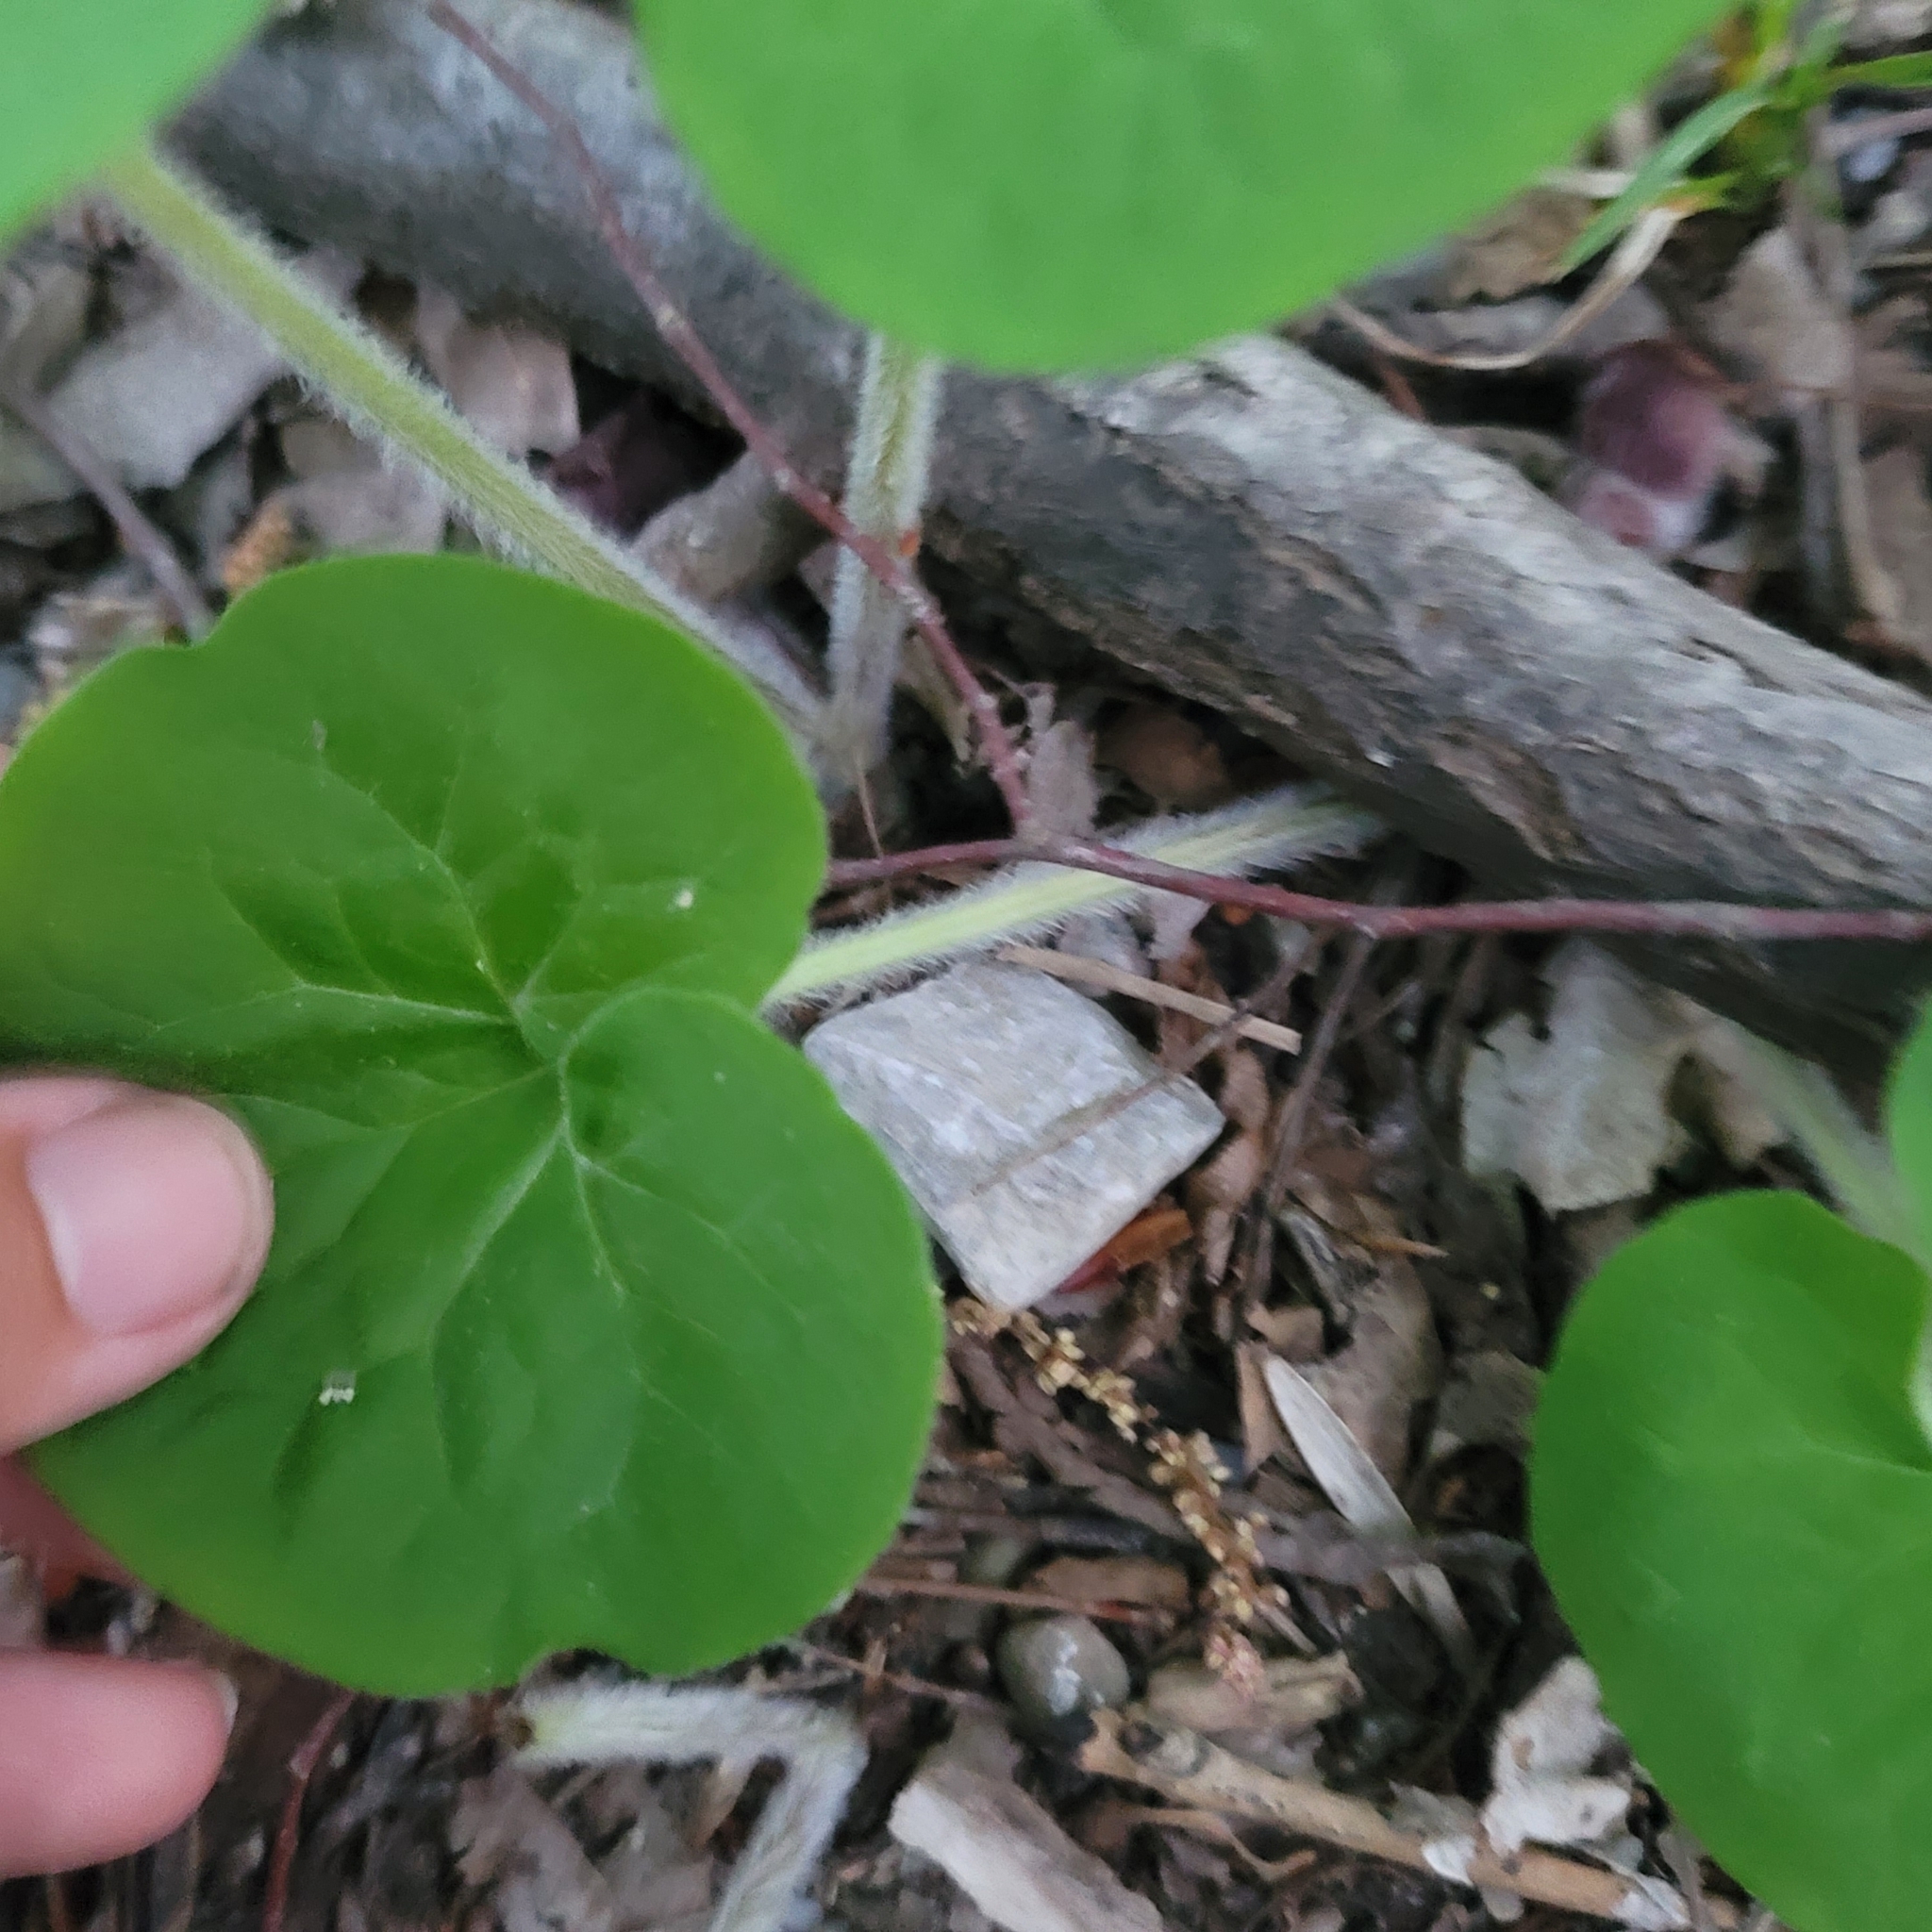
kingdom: Plantae
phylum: Tracheophyta
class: Magnoliopsida
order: Piperales
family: Aristolochiaceae
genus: Asarum
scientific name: Asarum canadense
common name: Wild ginger
